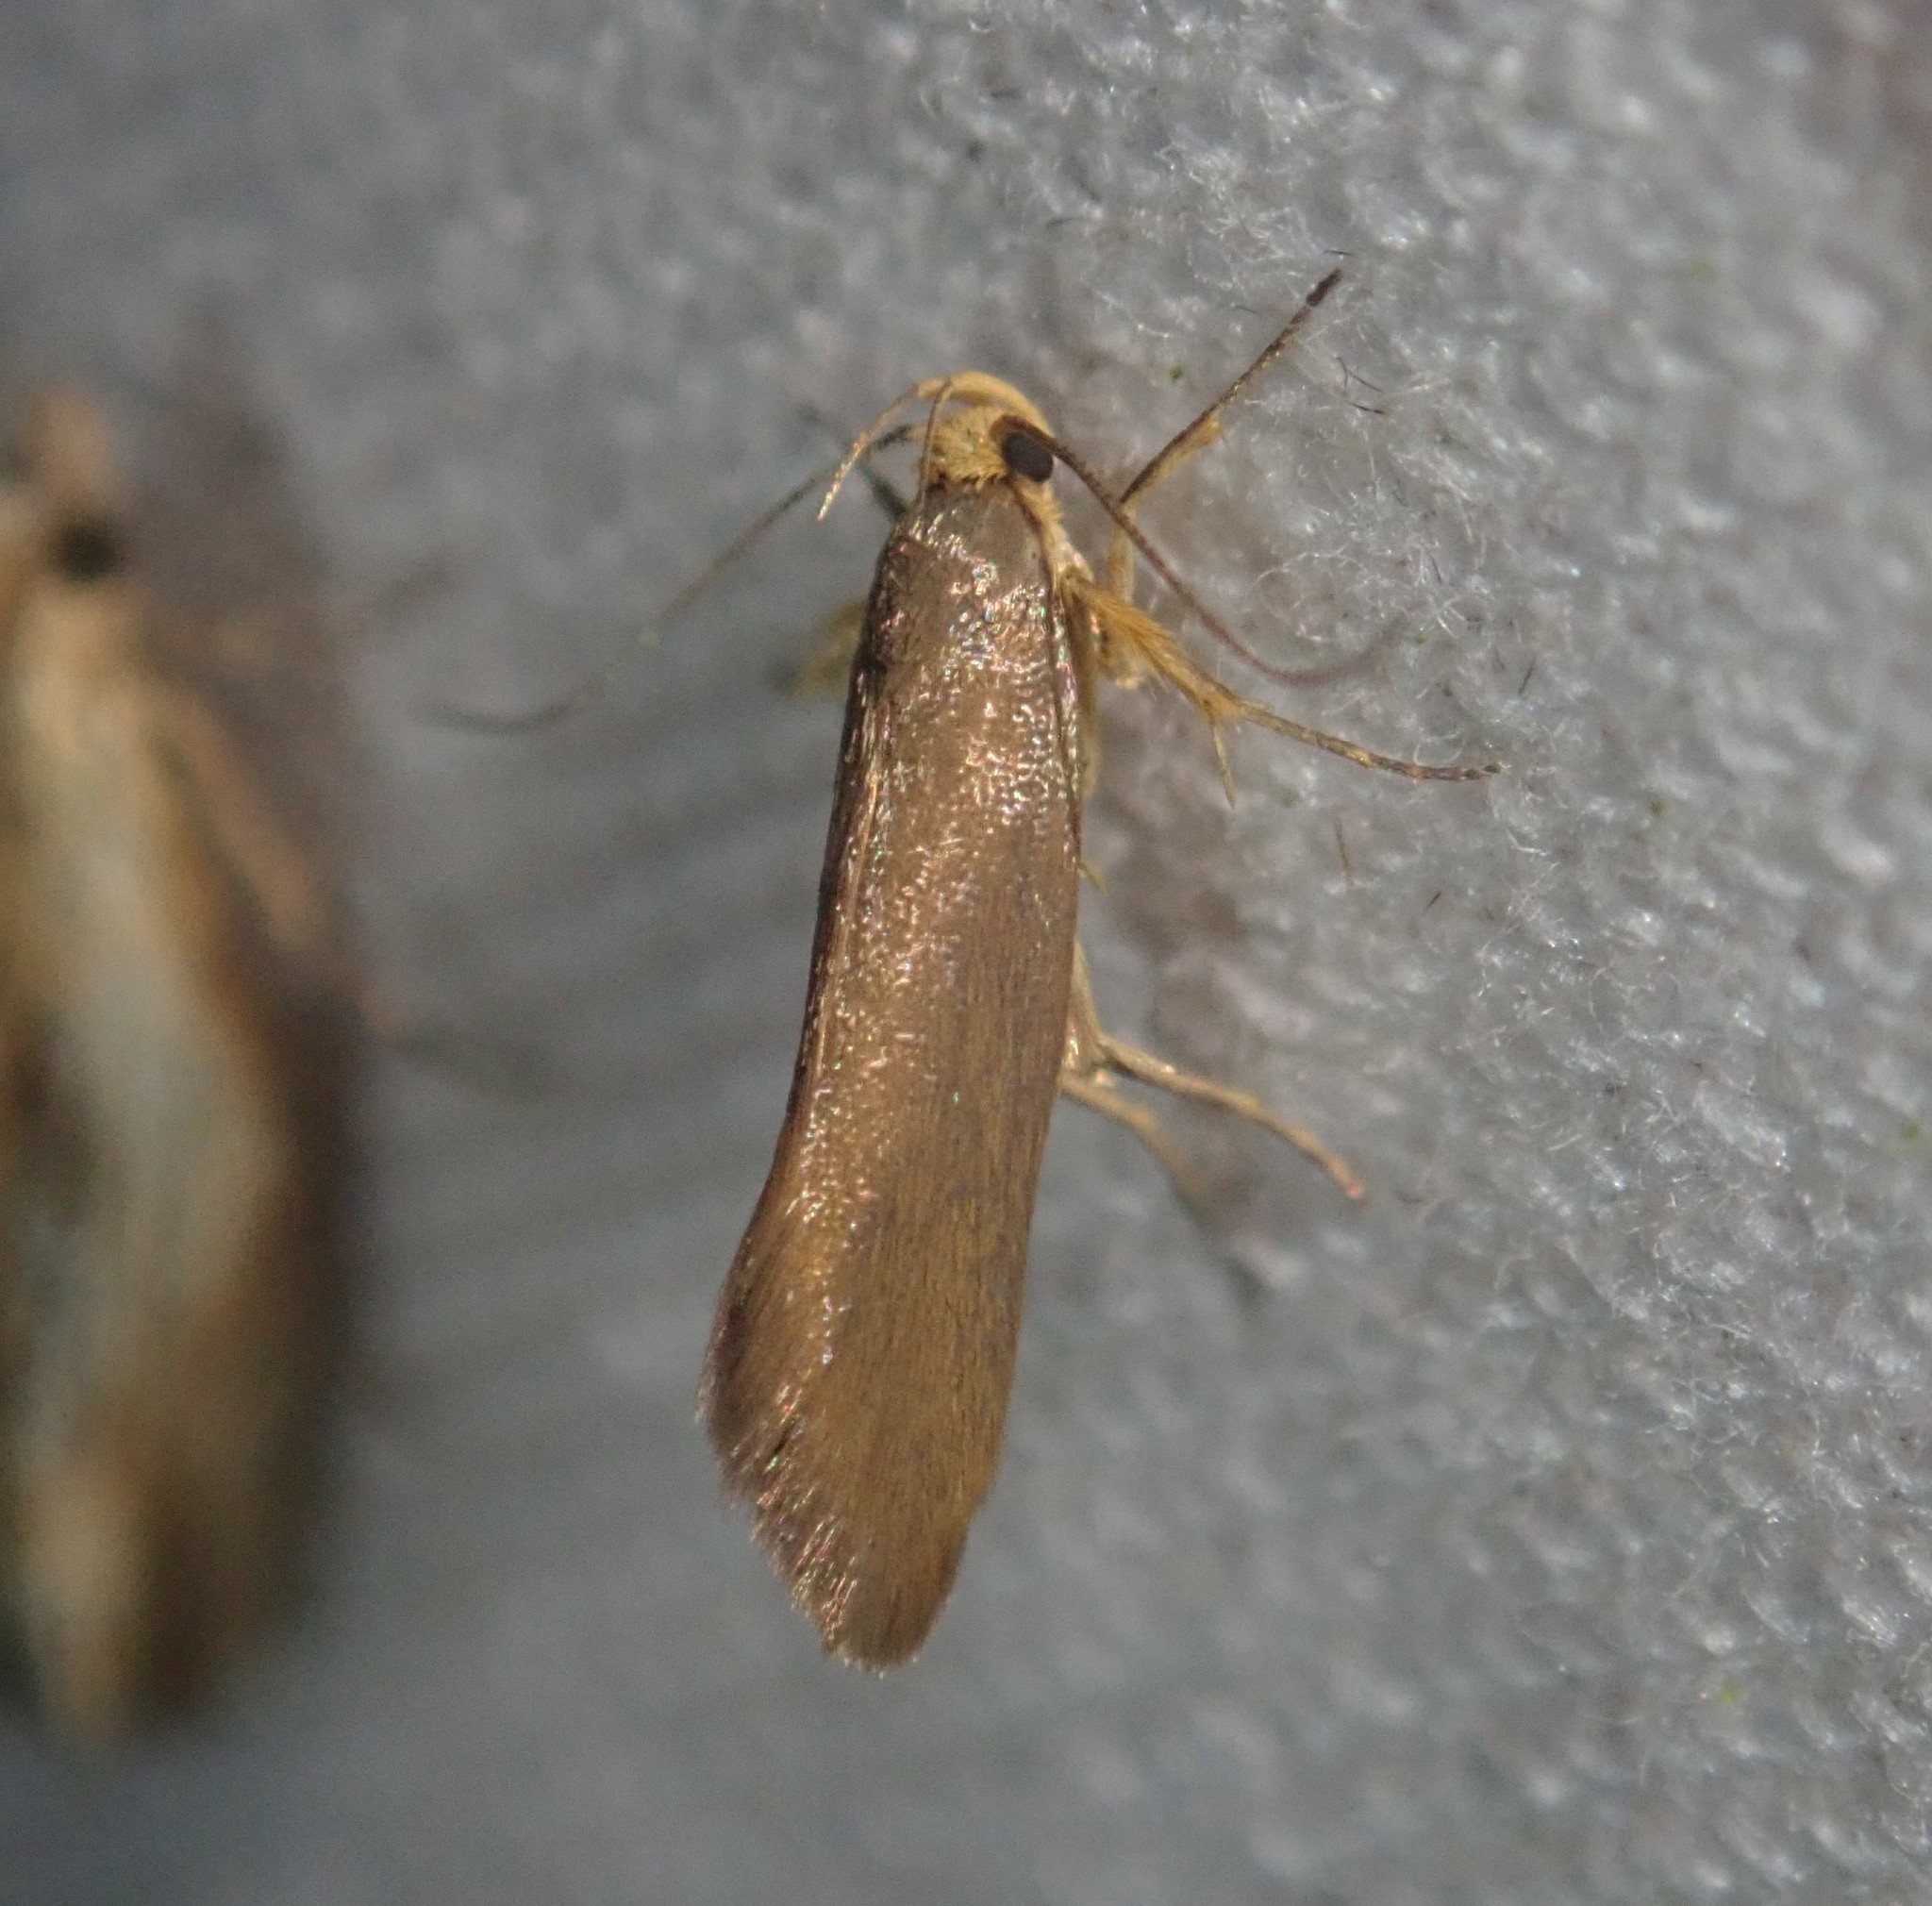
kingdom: Animalia
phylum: Arthropoda
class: Insecta
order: Lepidoptera
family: Oecophoridae
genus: Borkhausenia
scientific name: Borkhausenia Crassa unitella
